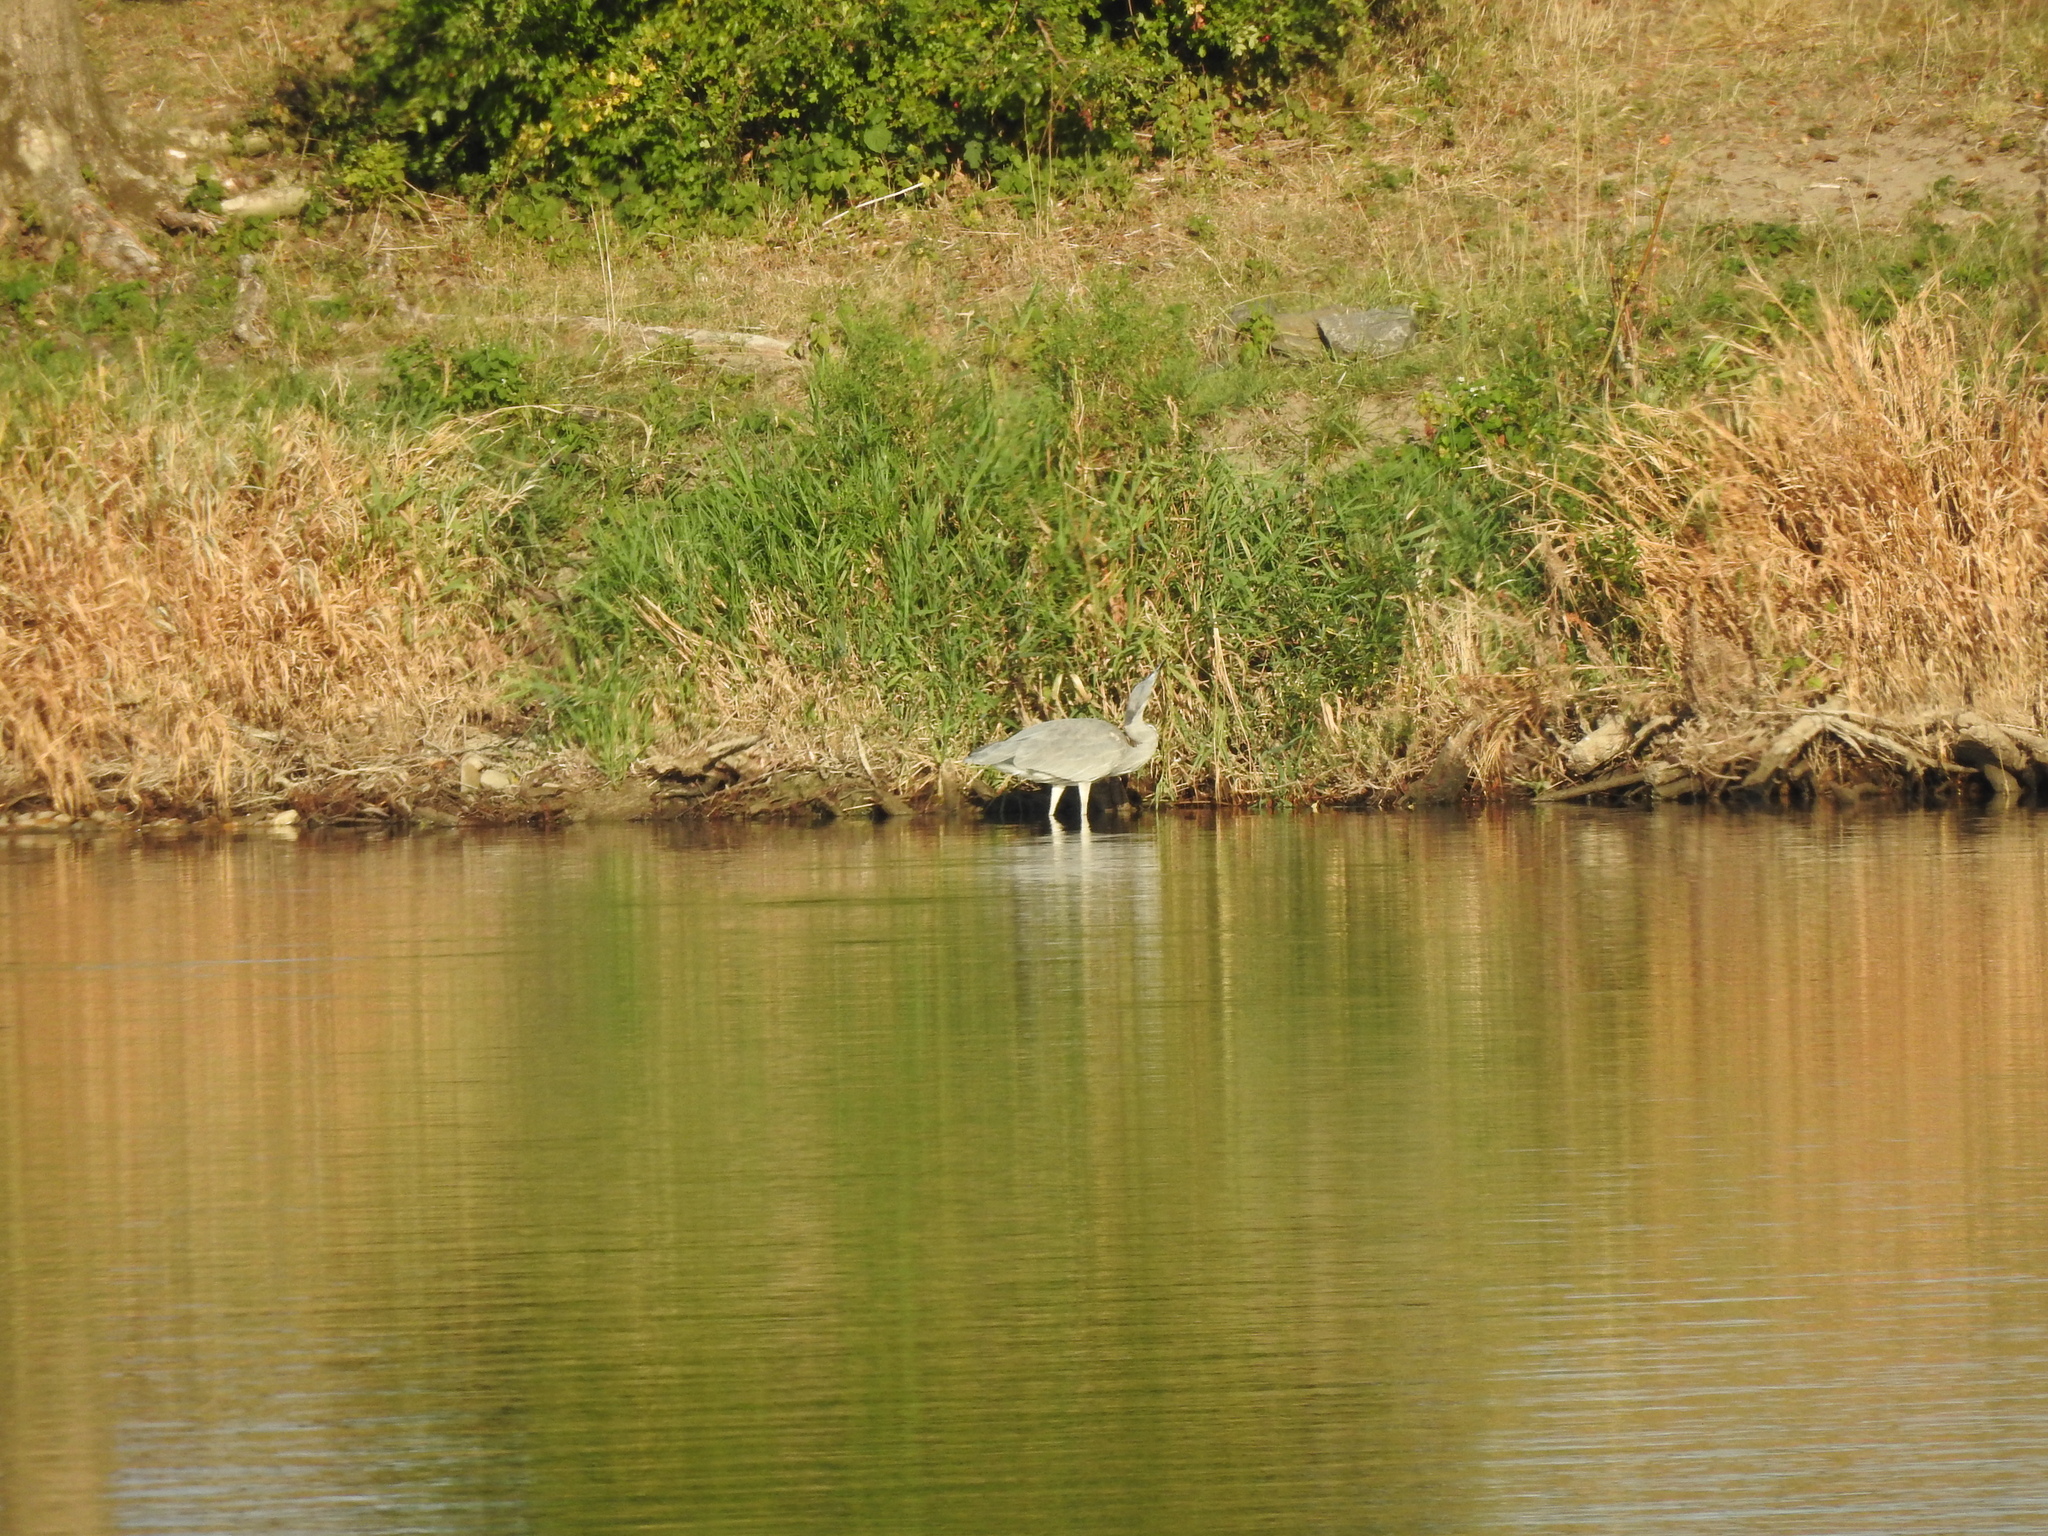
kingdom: Animalia
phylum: Chordata
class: Aves
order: Pelecaniformes
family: Ardeidae
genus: Ardea
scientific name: Ardea cinerea
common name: Grey heron
